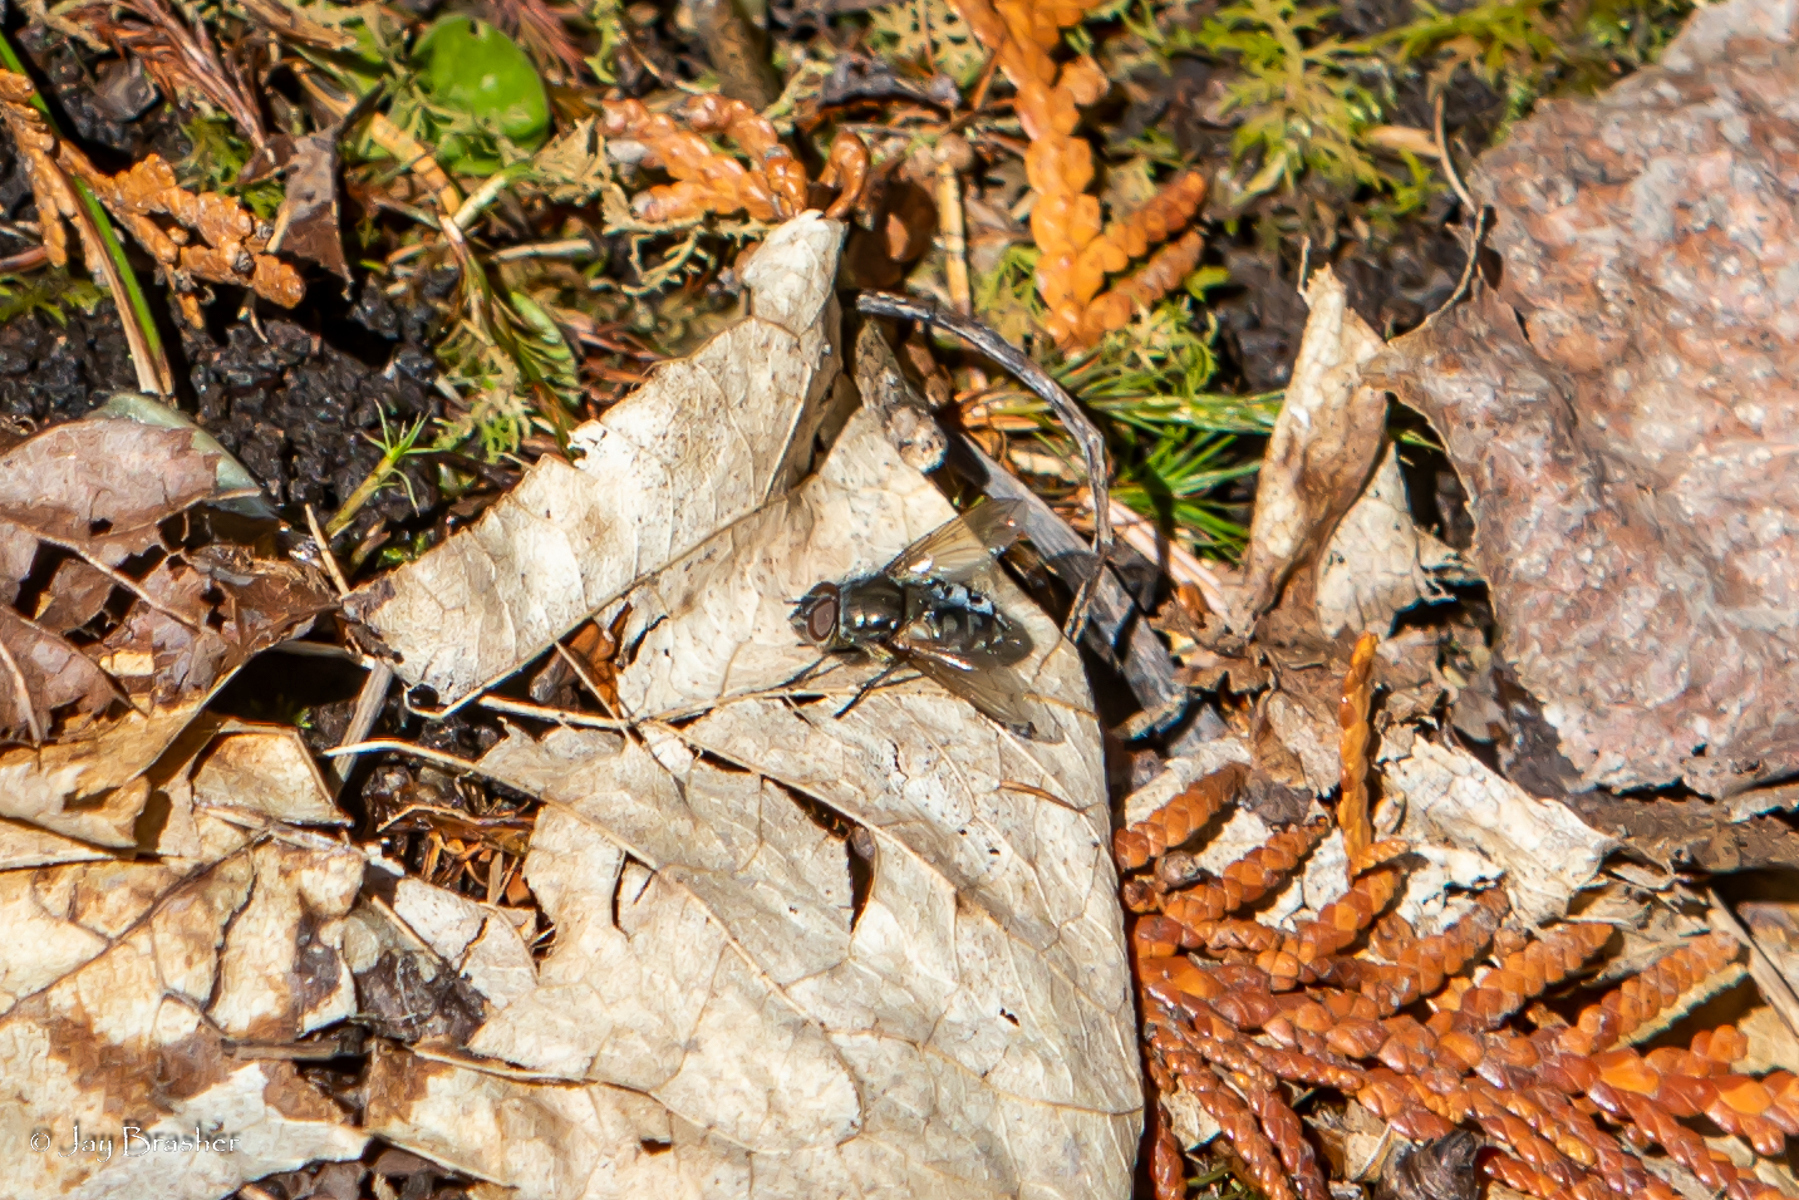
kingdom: Animalia
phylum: Arthropoda
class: Insecta
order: Diptera
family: Polleniidae
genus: Pollenia
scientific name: Pollenia
